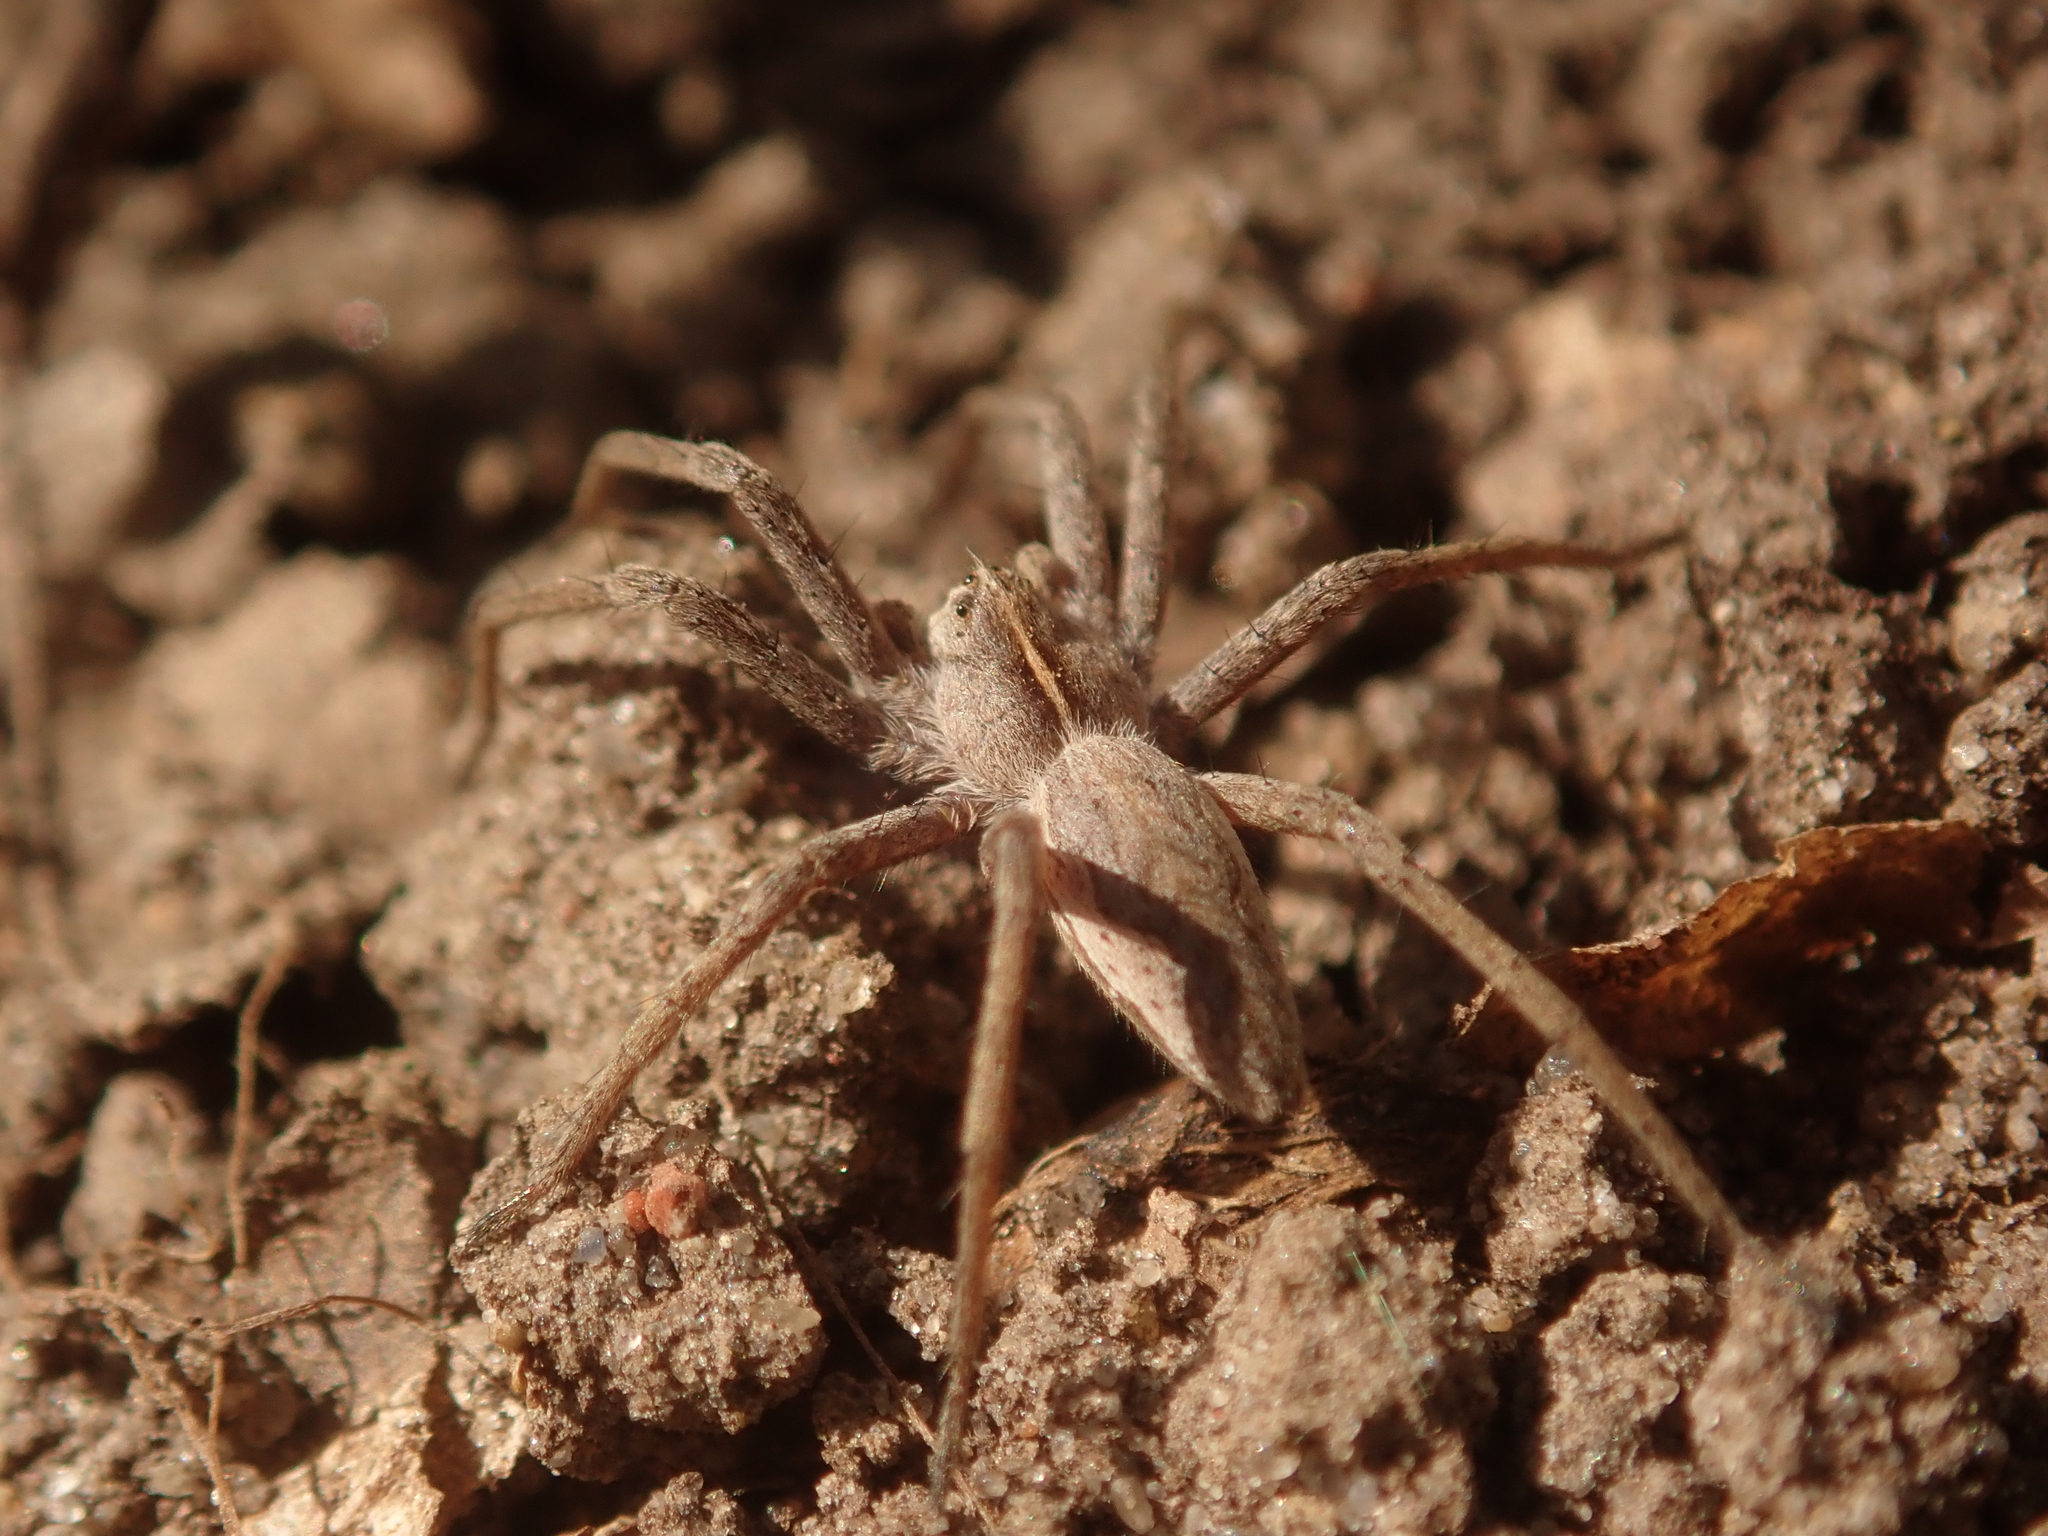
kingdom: Animalia
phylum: Arthropoda
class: Arachnida
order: Araneae
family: Pisauridae
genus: Pisaura
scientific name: Pisaura mirabilis
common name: Tent spider
